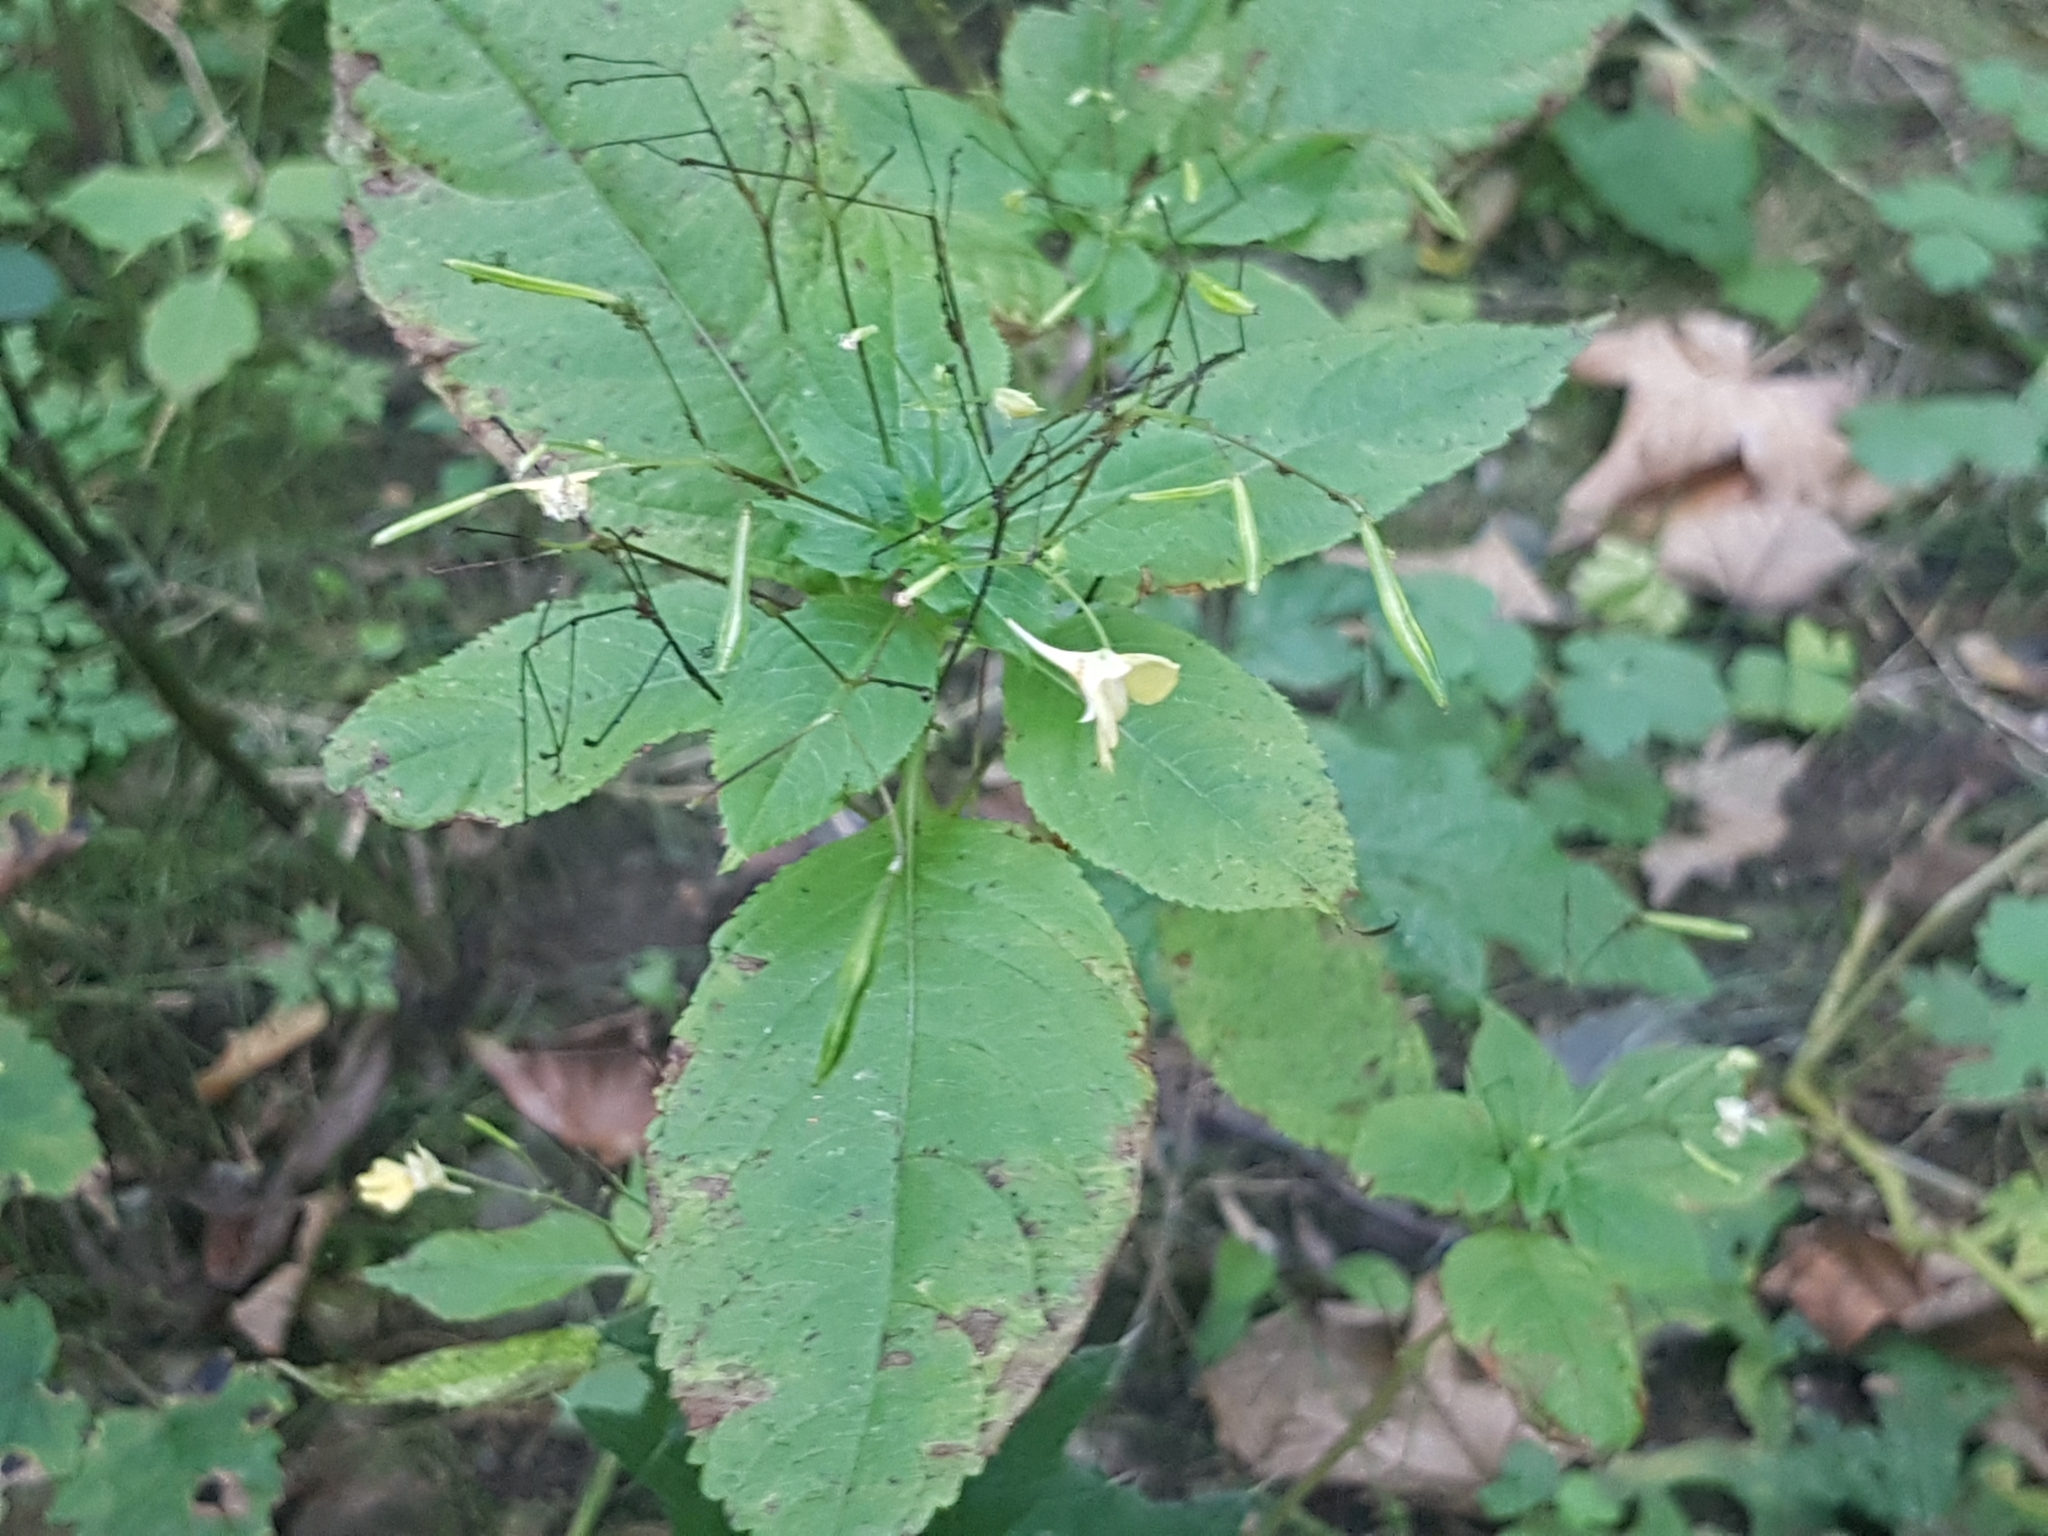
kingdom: Plantae
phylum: Tracheophyta
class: Magnoliopsida
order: Ericales
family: Balsaminaceae
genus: Impatiens
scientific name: Impatiens parviflora
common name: Small balsam
